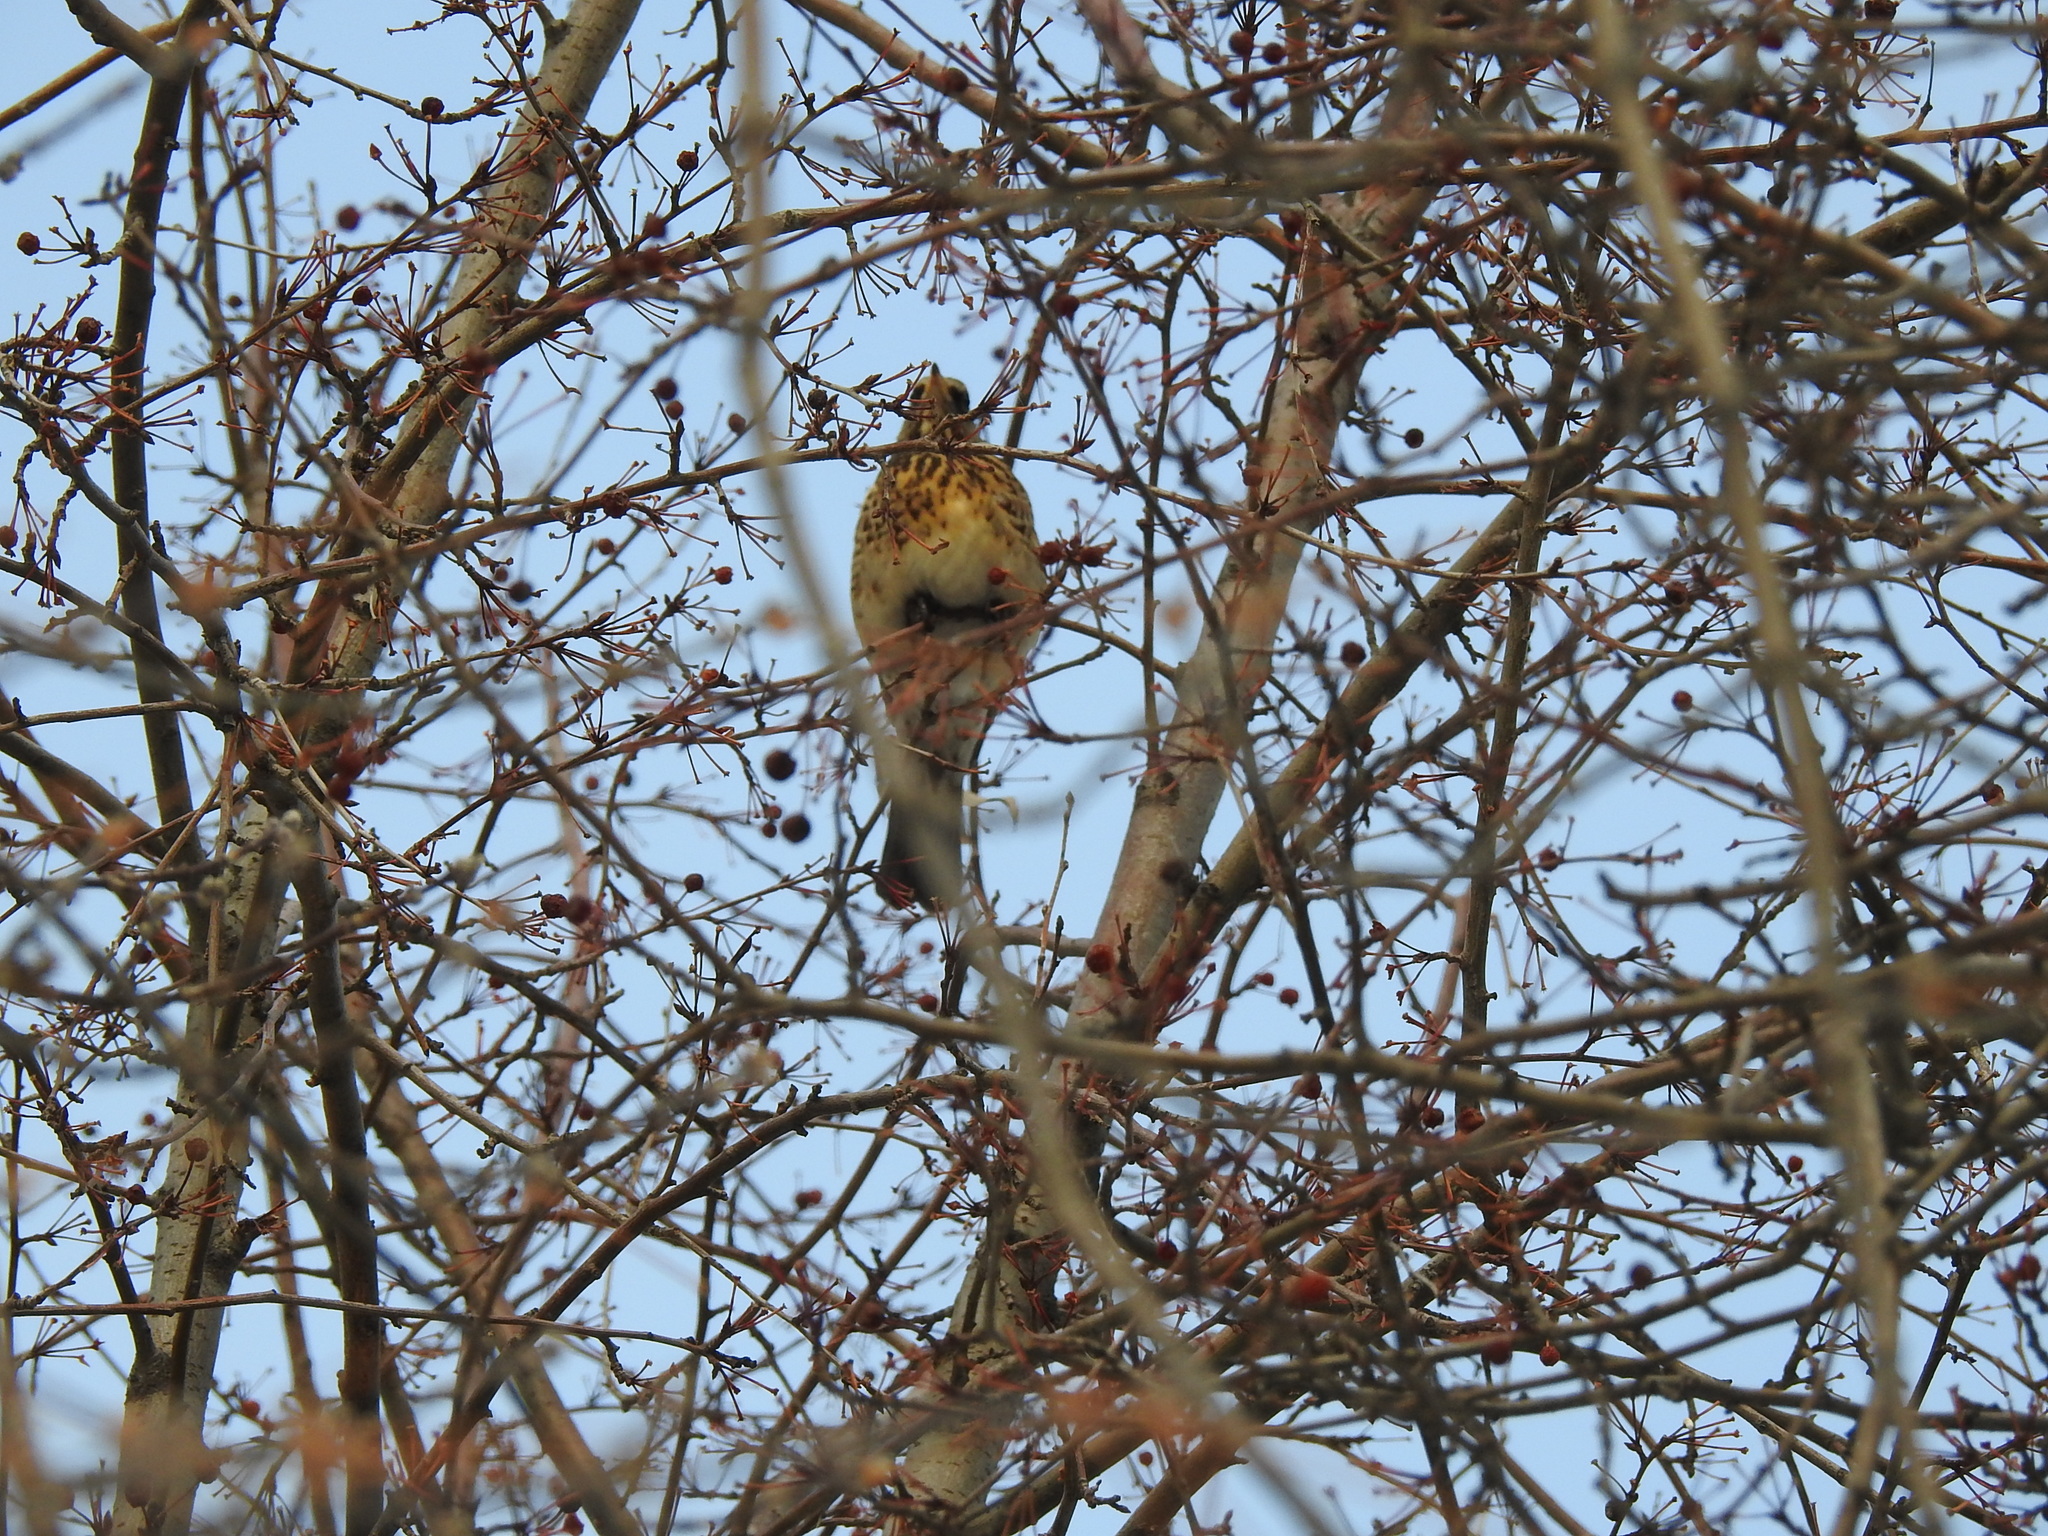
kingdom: Animalia
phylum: Chordata
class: Aves
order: Passeriformes
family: Turdidae
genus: Turdus
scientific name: Turdus pilaris
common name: Fieldfare
